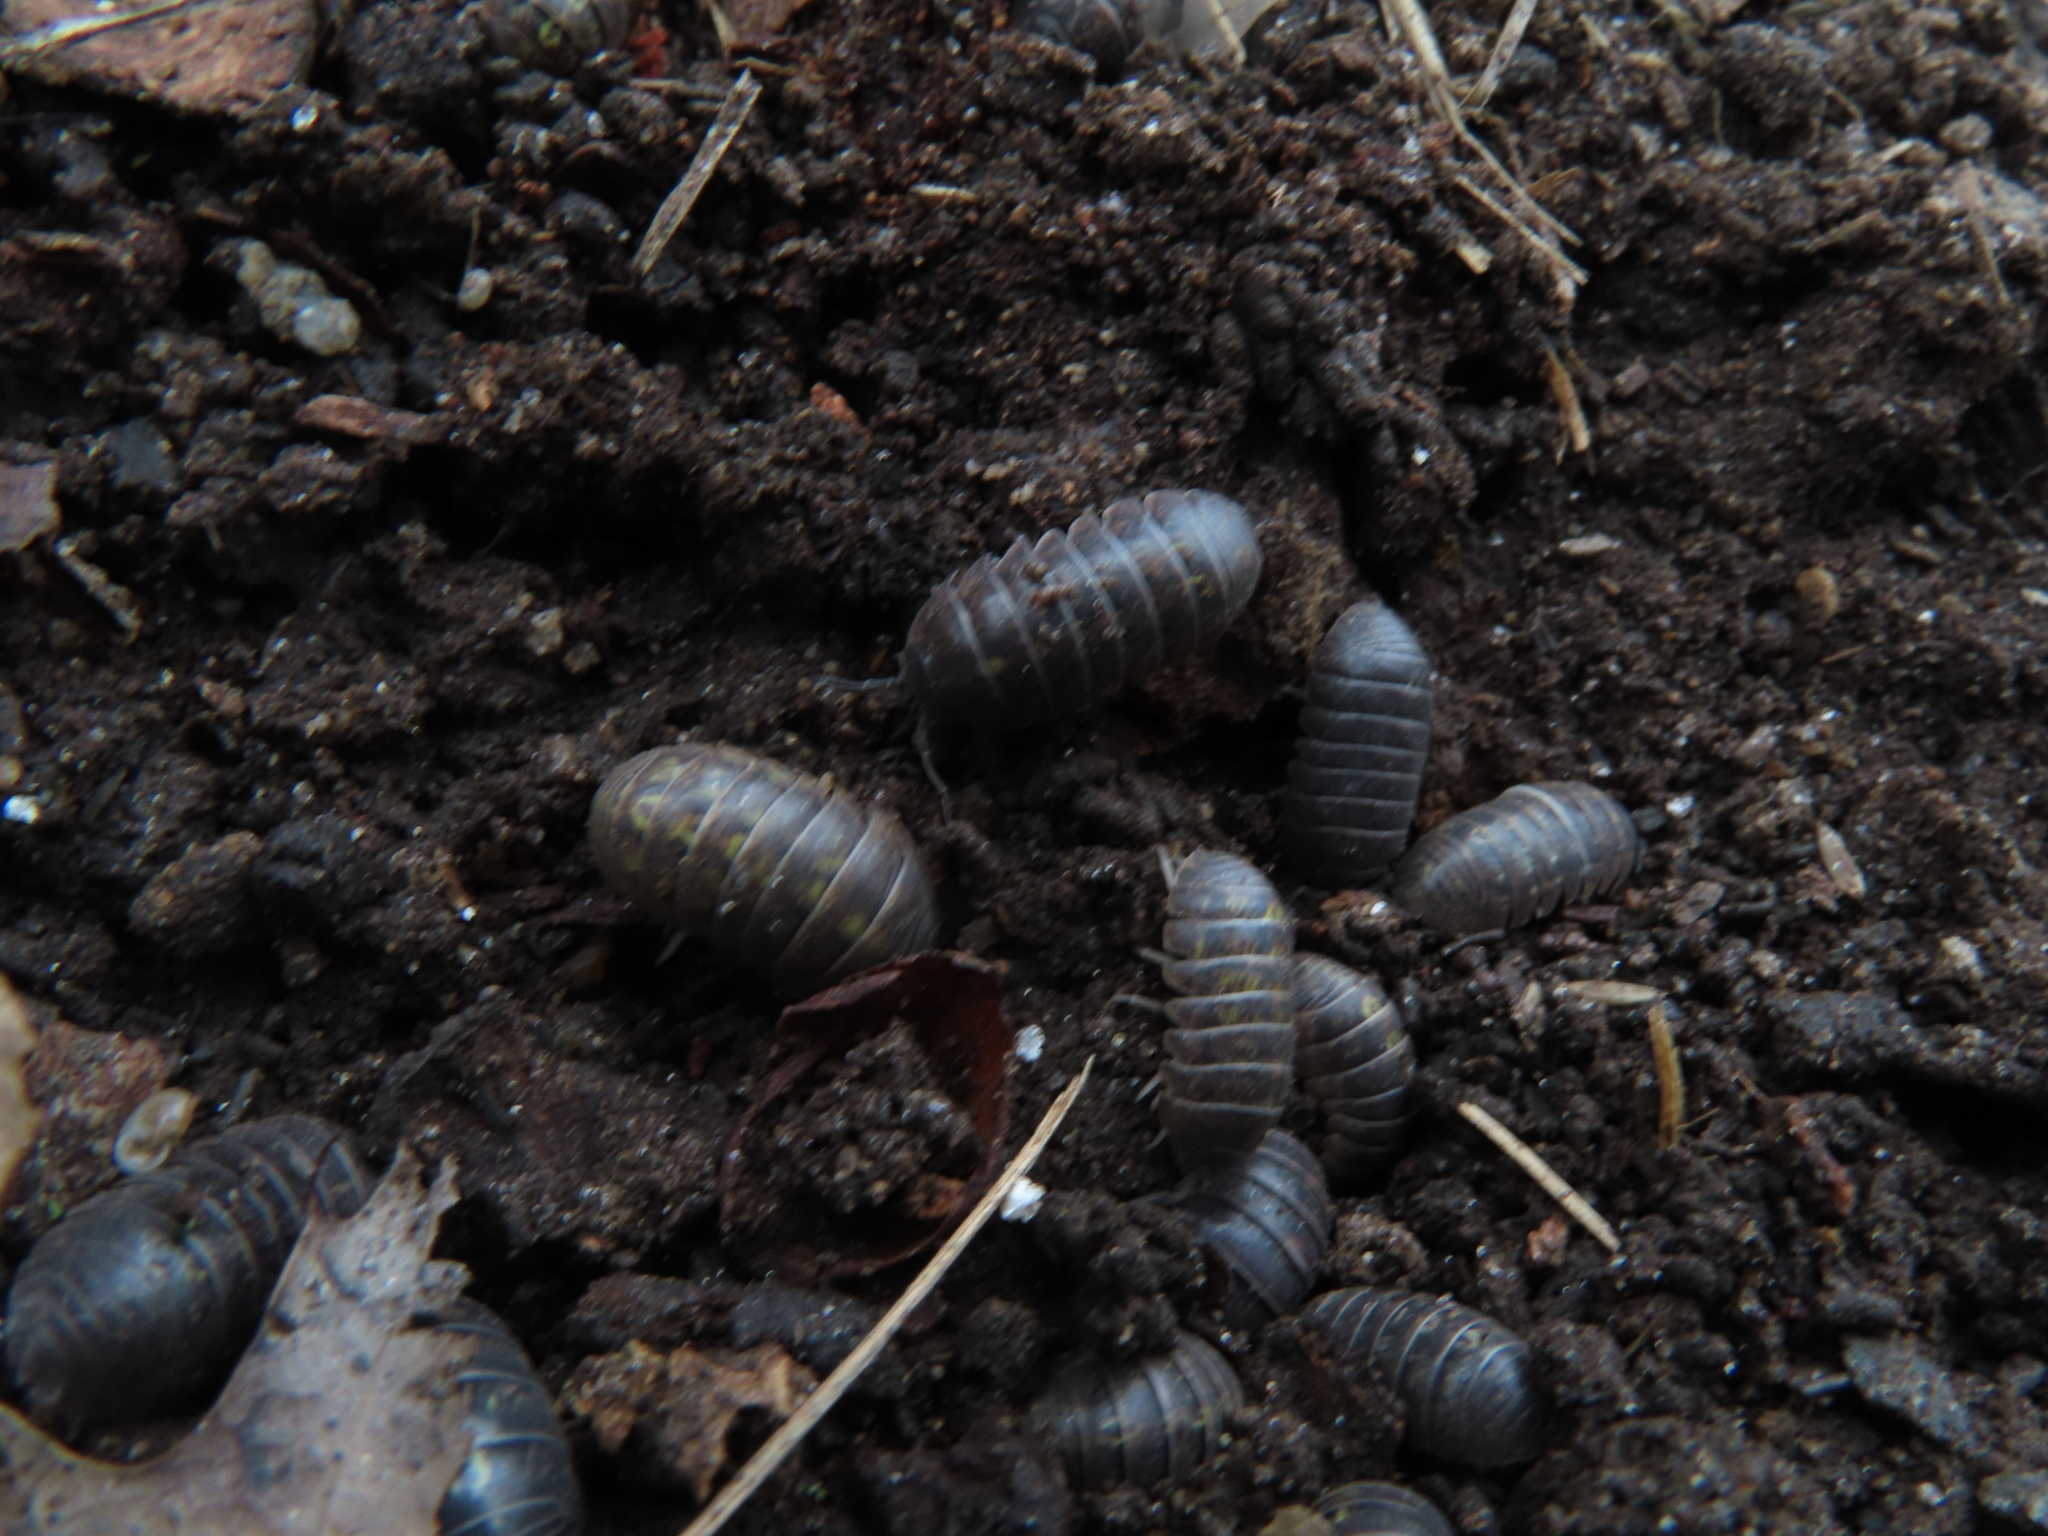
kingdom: Animalia
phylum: Arthropoda
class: Malacostraca
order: Isopoda
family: Armadillidiidae
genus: Armadillidium
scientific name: Armadillidium vulgare
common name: Common pill woodlouse
